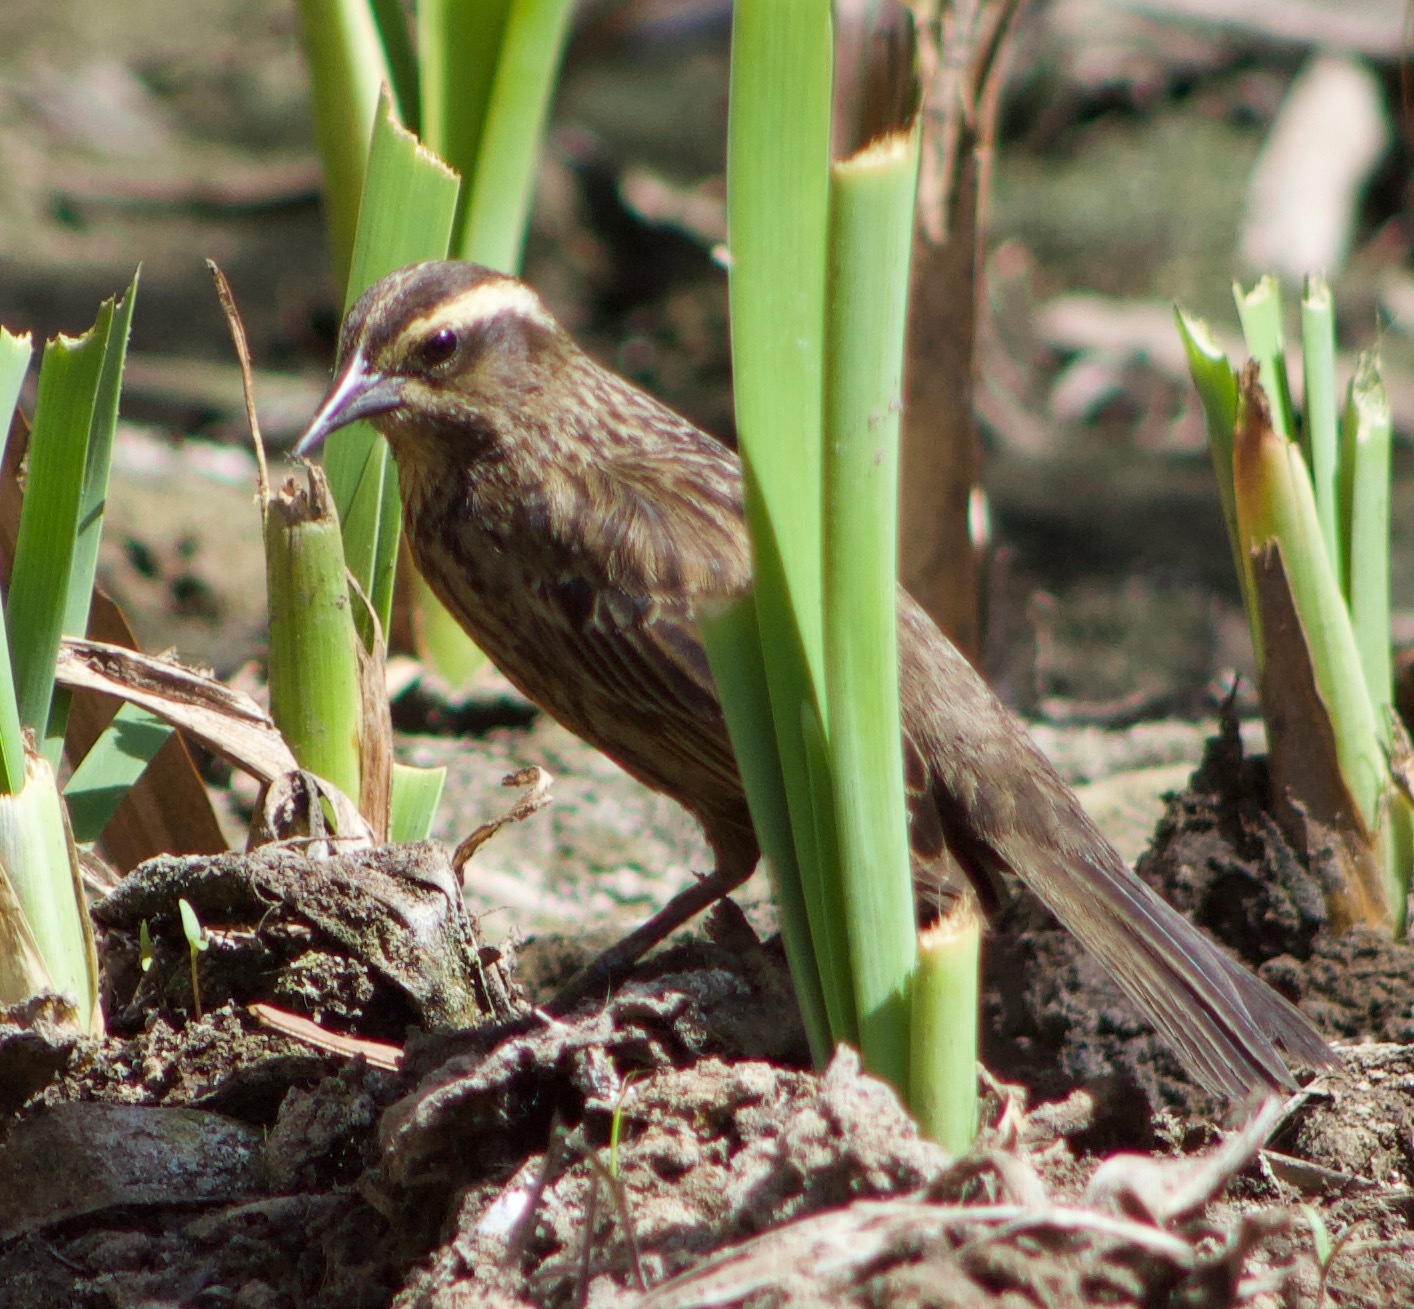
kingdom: Animalia
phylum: Chordata
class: Aves
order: Passeriformes
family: Icteridae
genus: Agelasticus
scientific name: Agelasticus thilius
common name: Yellow-winged blackbird
